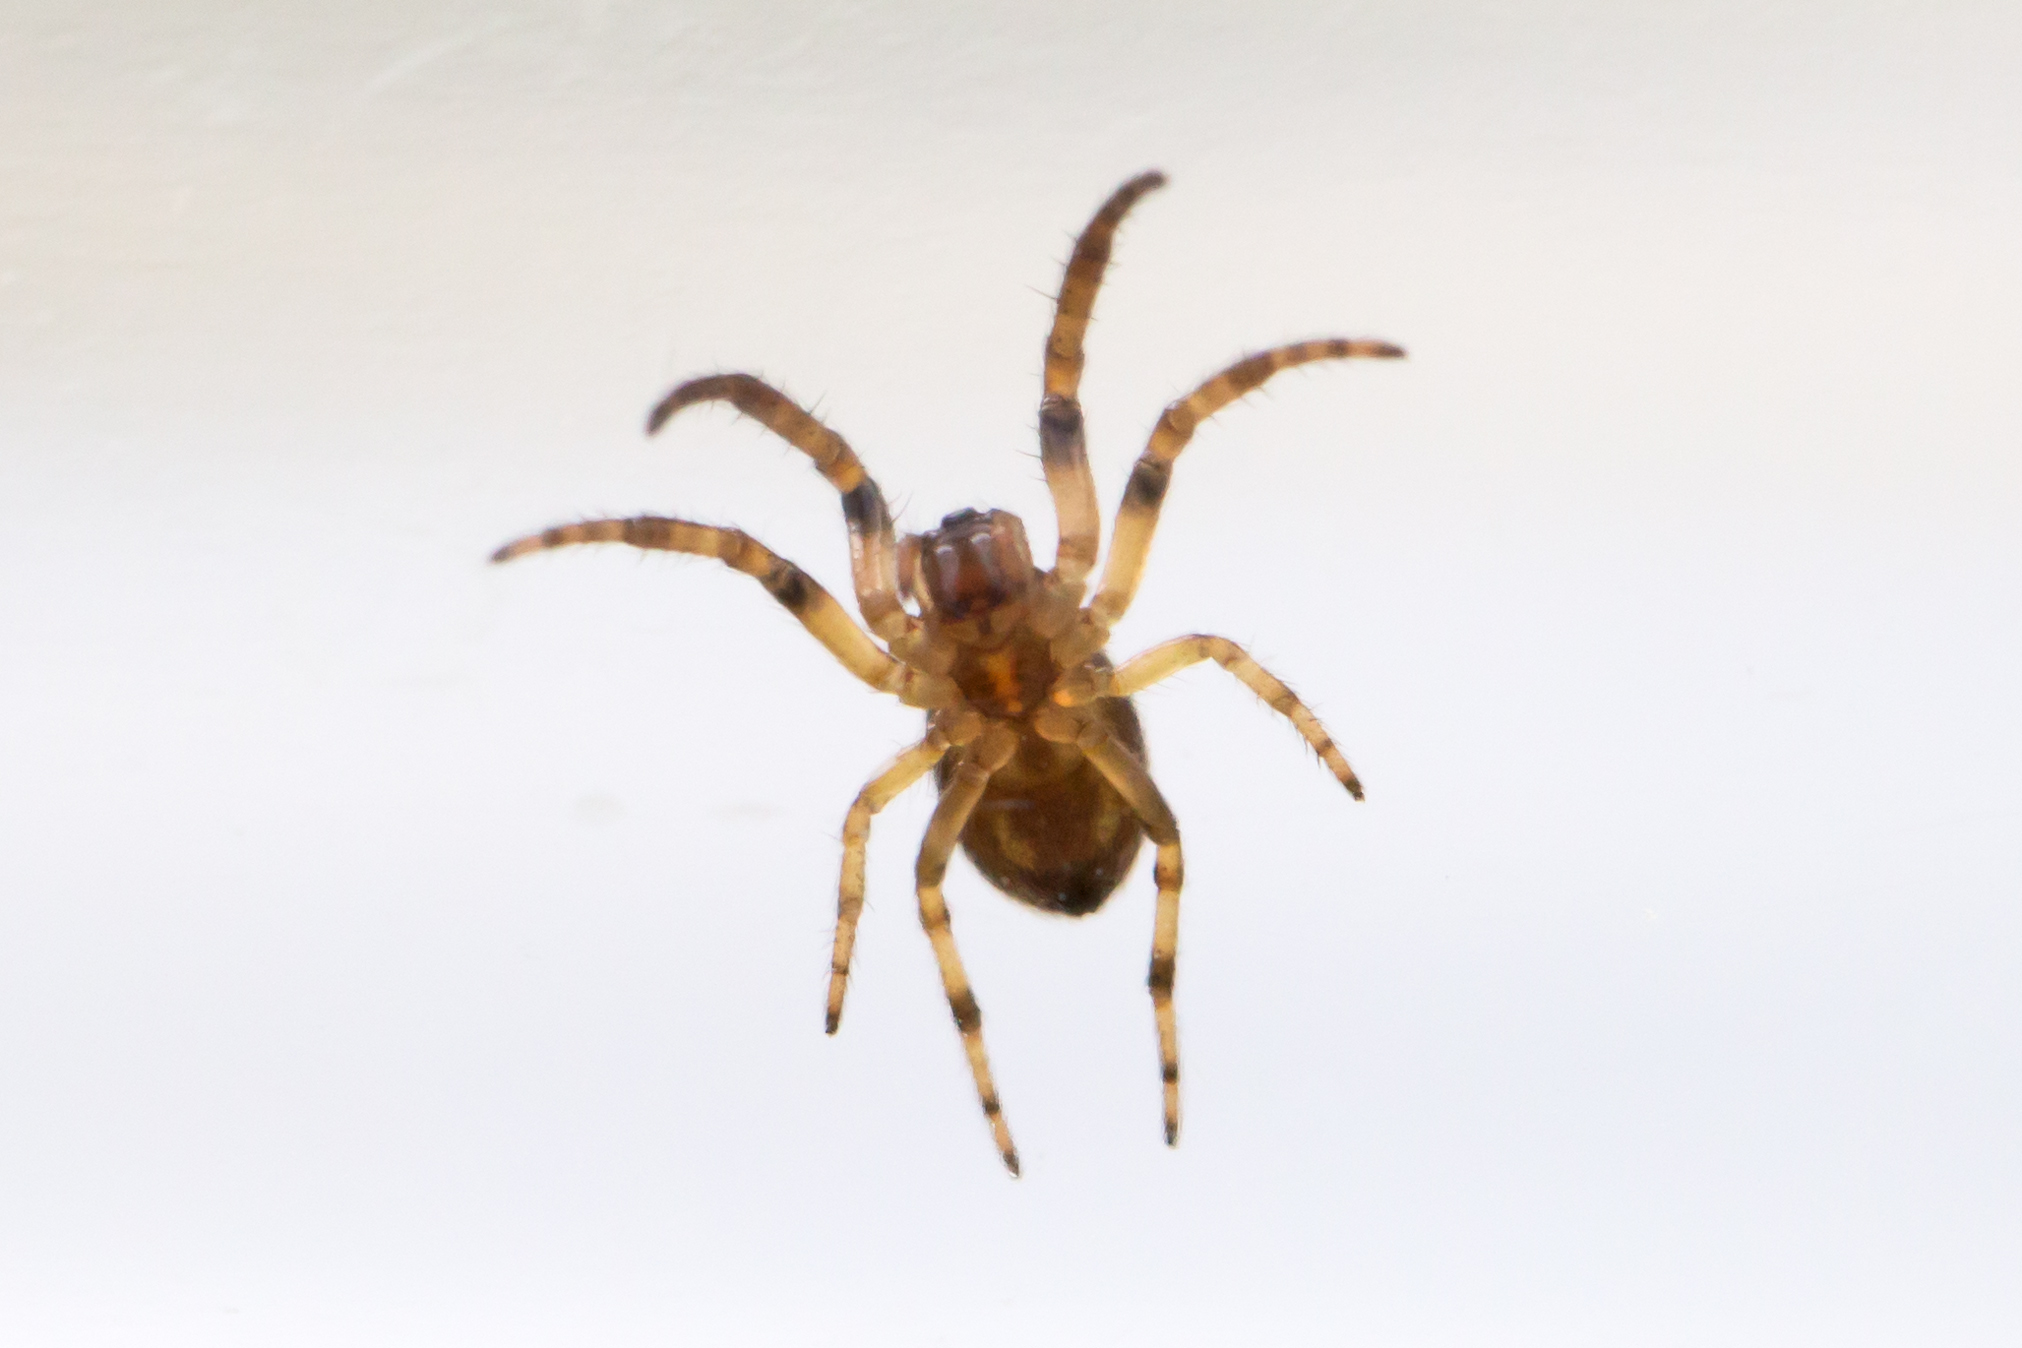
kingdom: Animalia
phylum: Arthropoda
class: Arachnida
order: Araneae
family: Araneidae
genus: Larinioides
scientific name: Larinioides cornutus
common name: Furrow orbweaver
